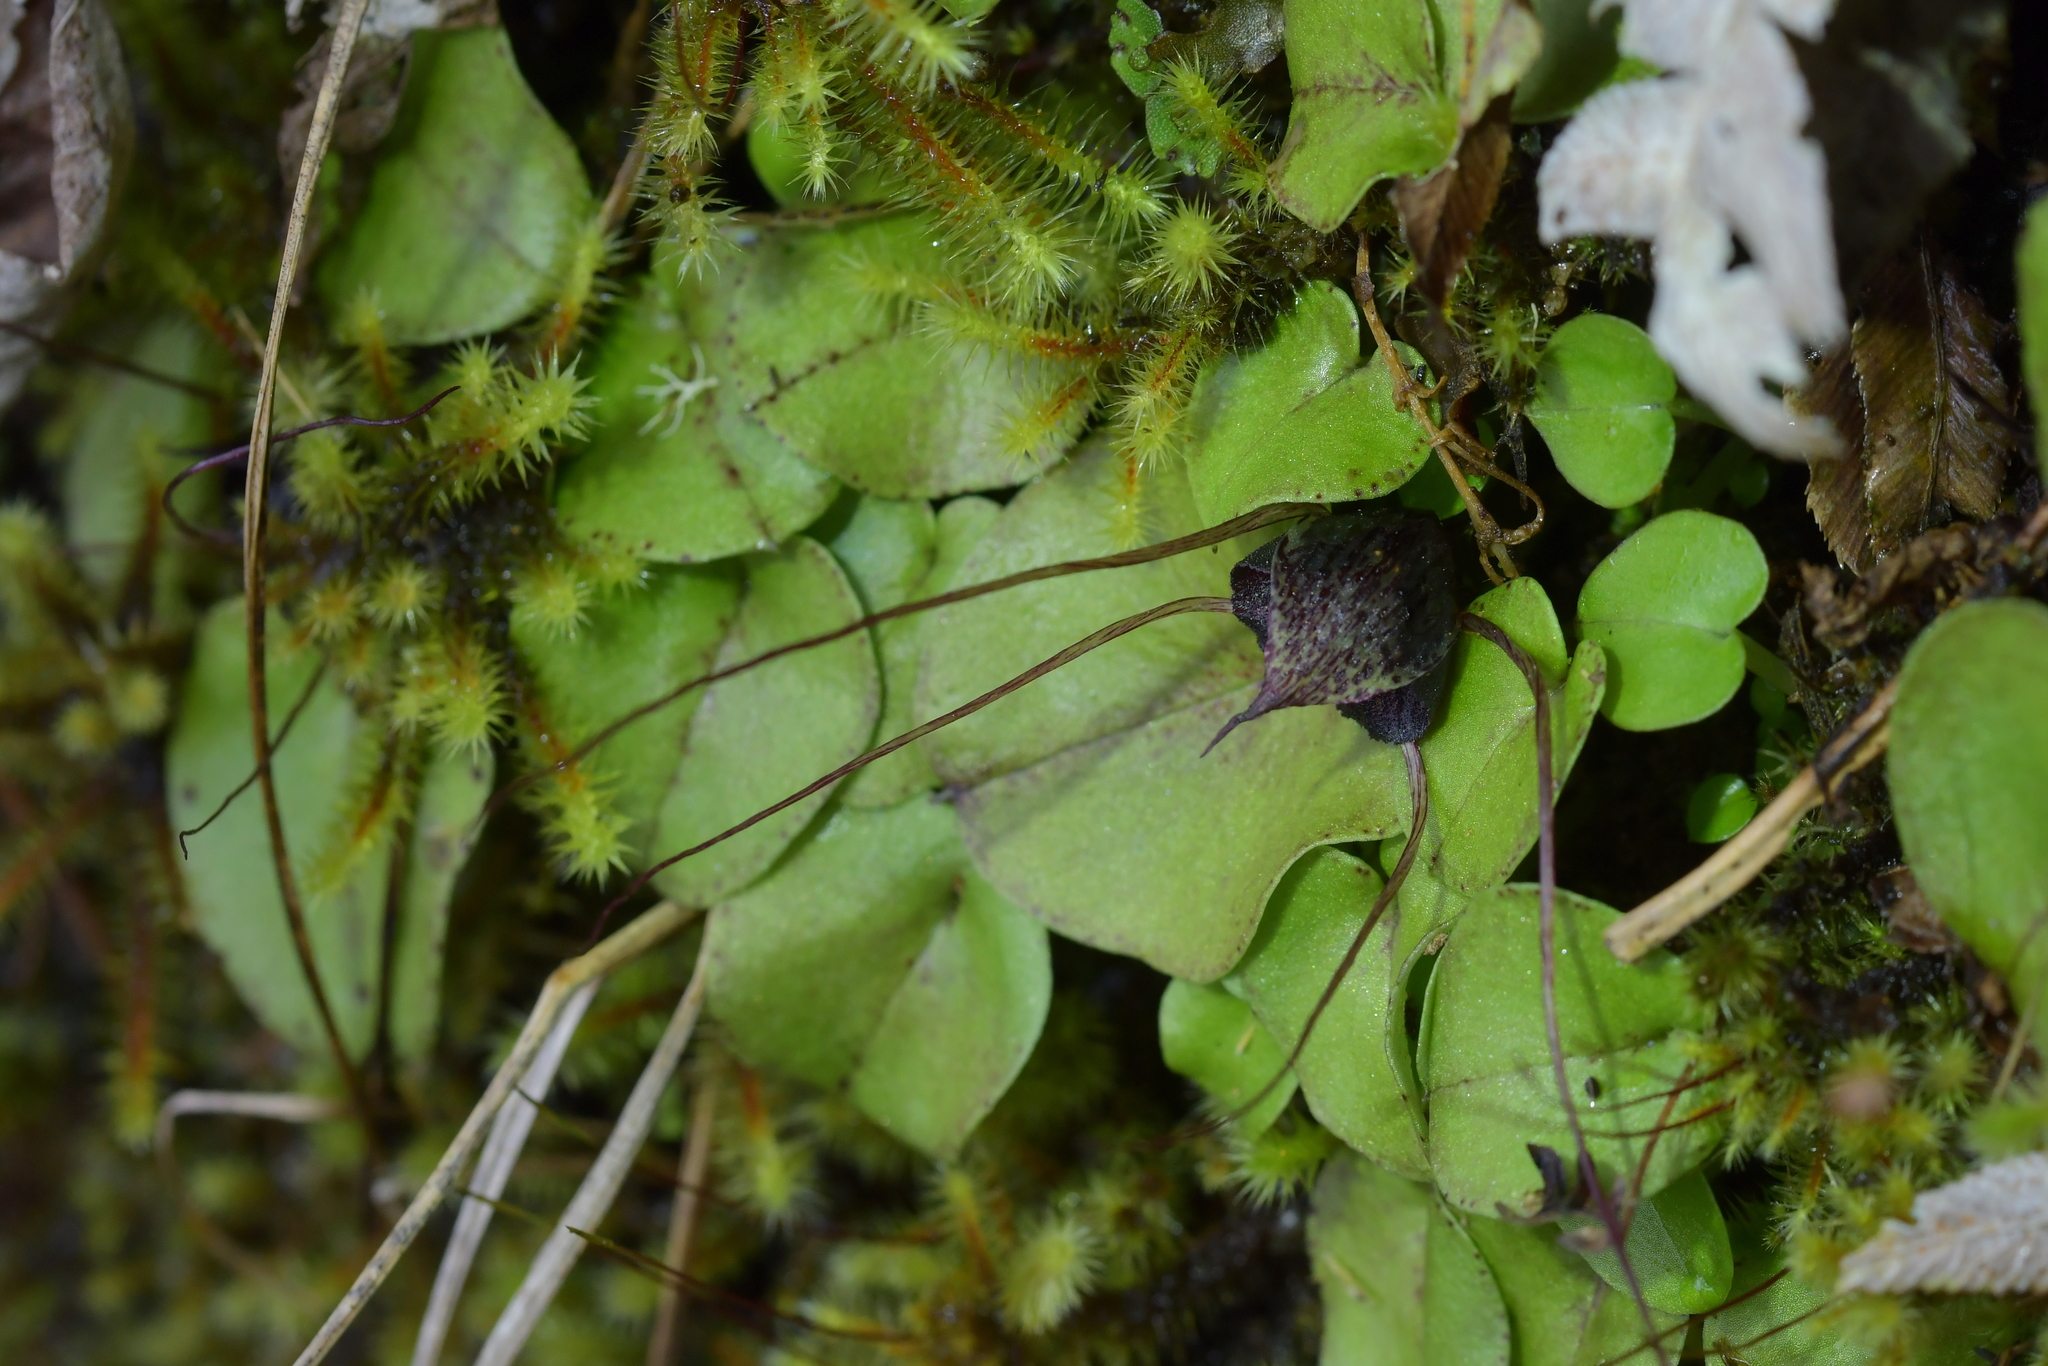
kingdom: Plantae
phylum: Tracheophyta
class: Liliopsida
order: Asparagales
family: Orchidaceae
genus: Corybas
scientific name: Corybas iridescens
